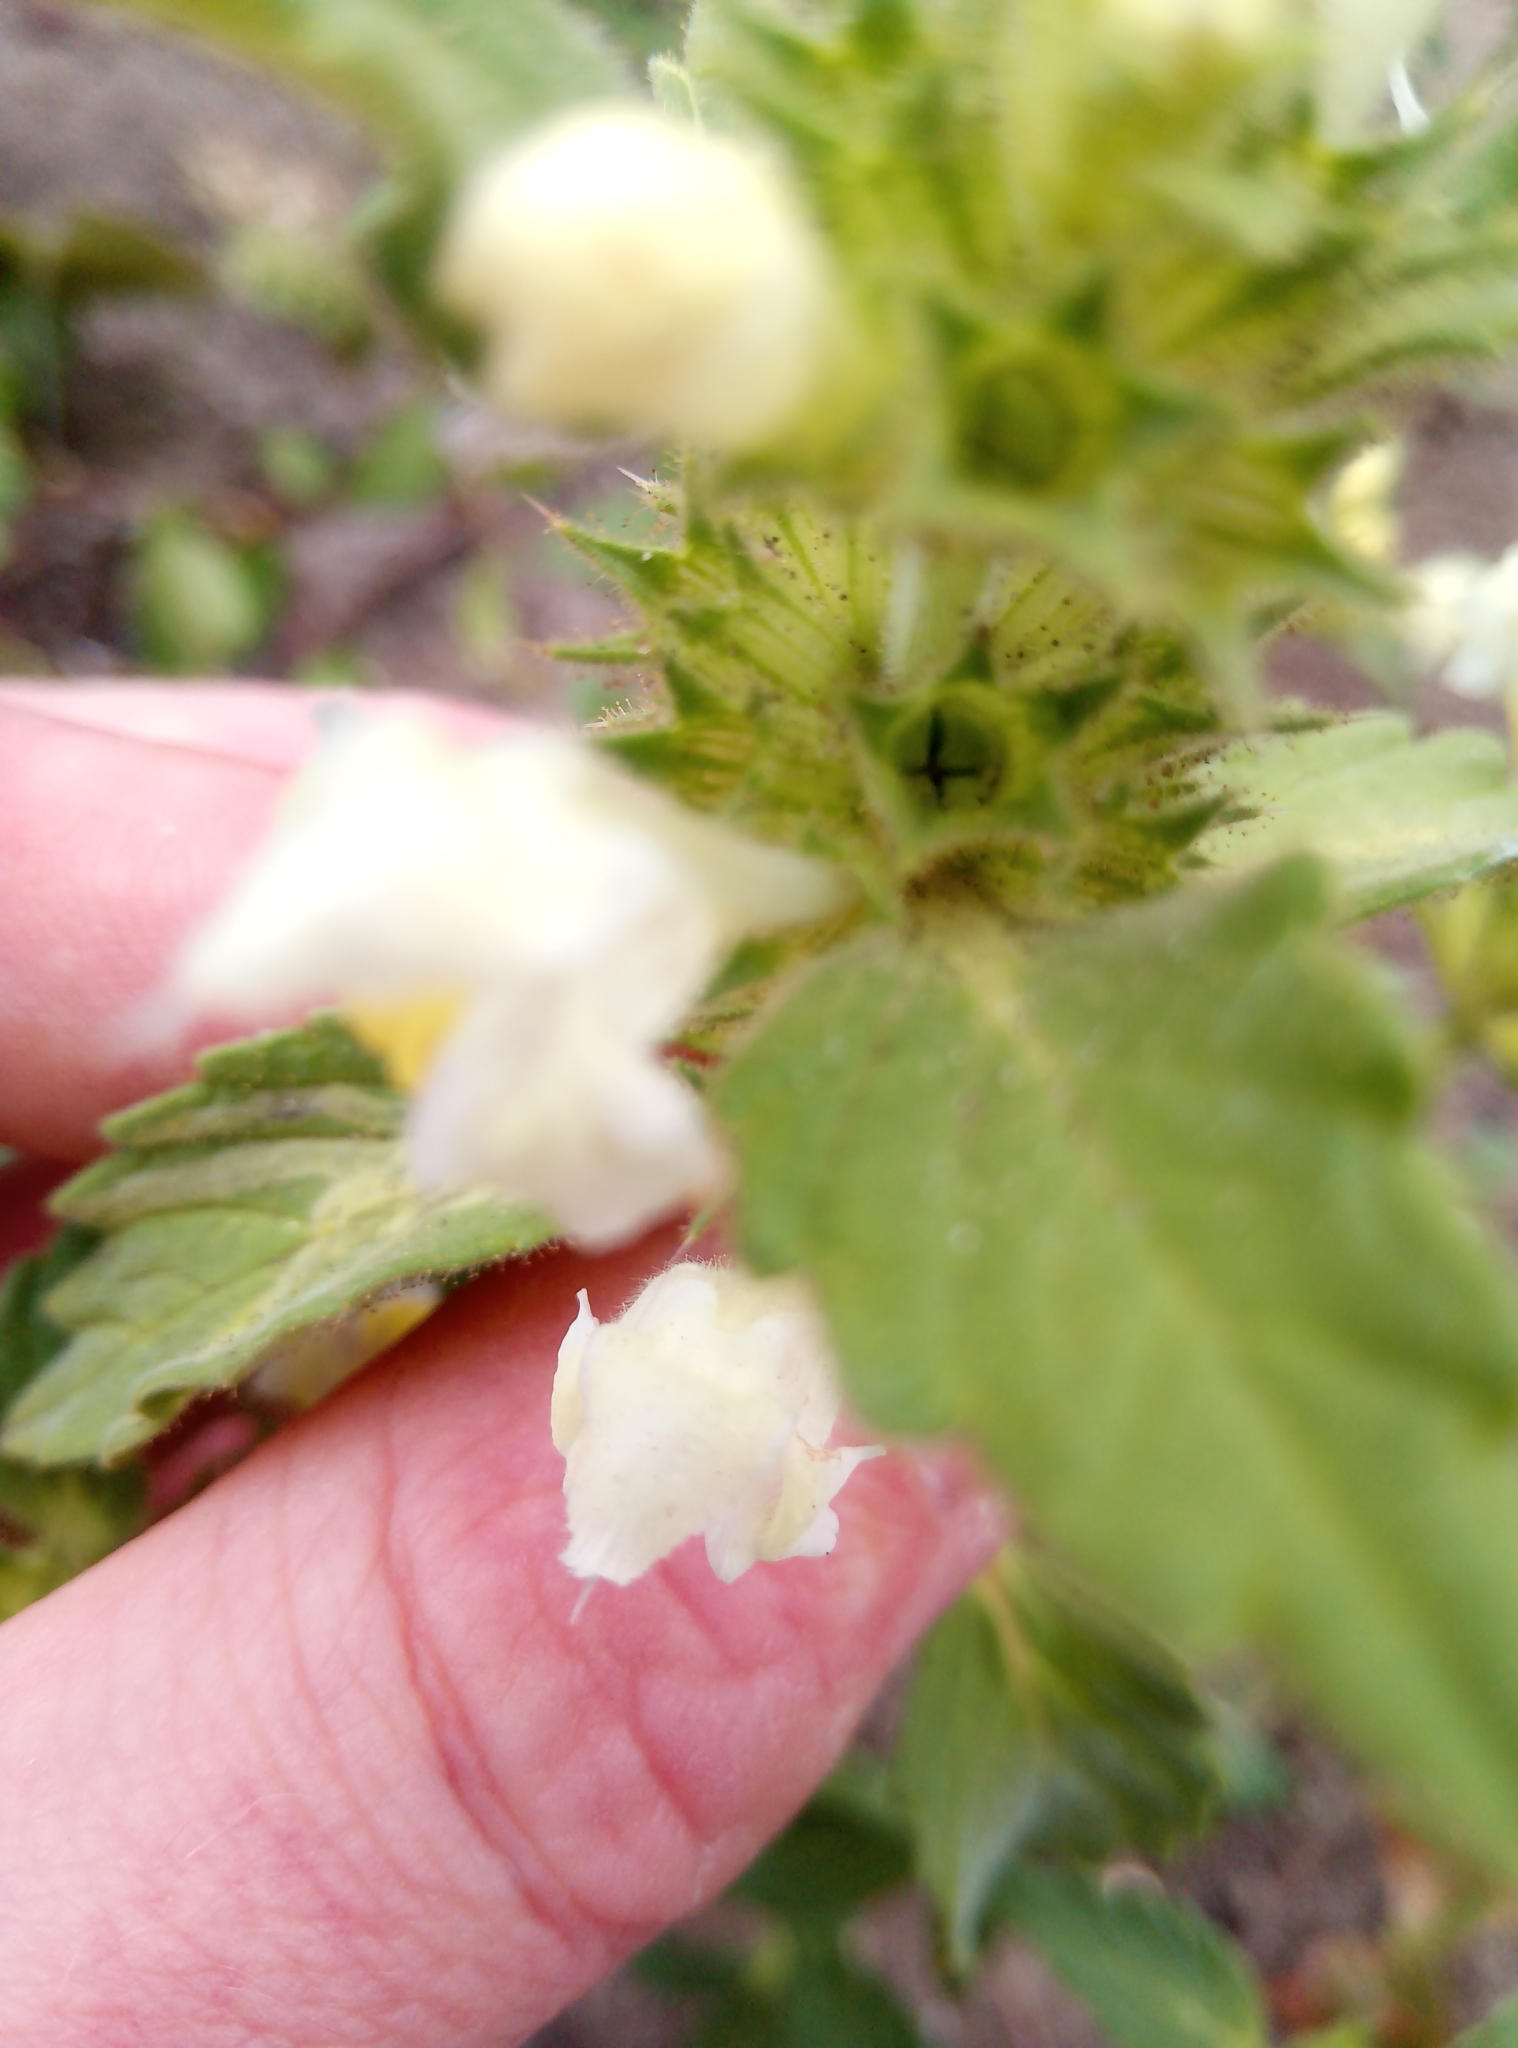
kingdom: Plantae
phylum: Tracheophyta
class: Magnoliopsida
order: Lamiales
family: Lamiaceae
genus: Galeopsis
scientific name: Galeopsis segetum
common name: Downy hemp-nettle
